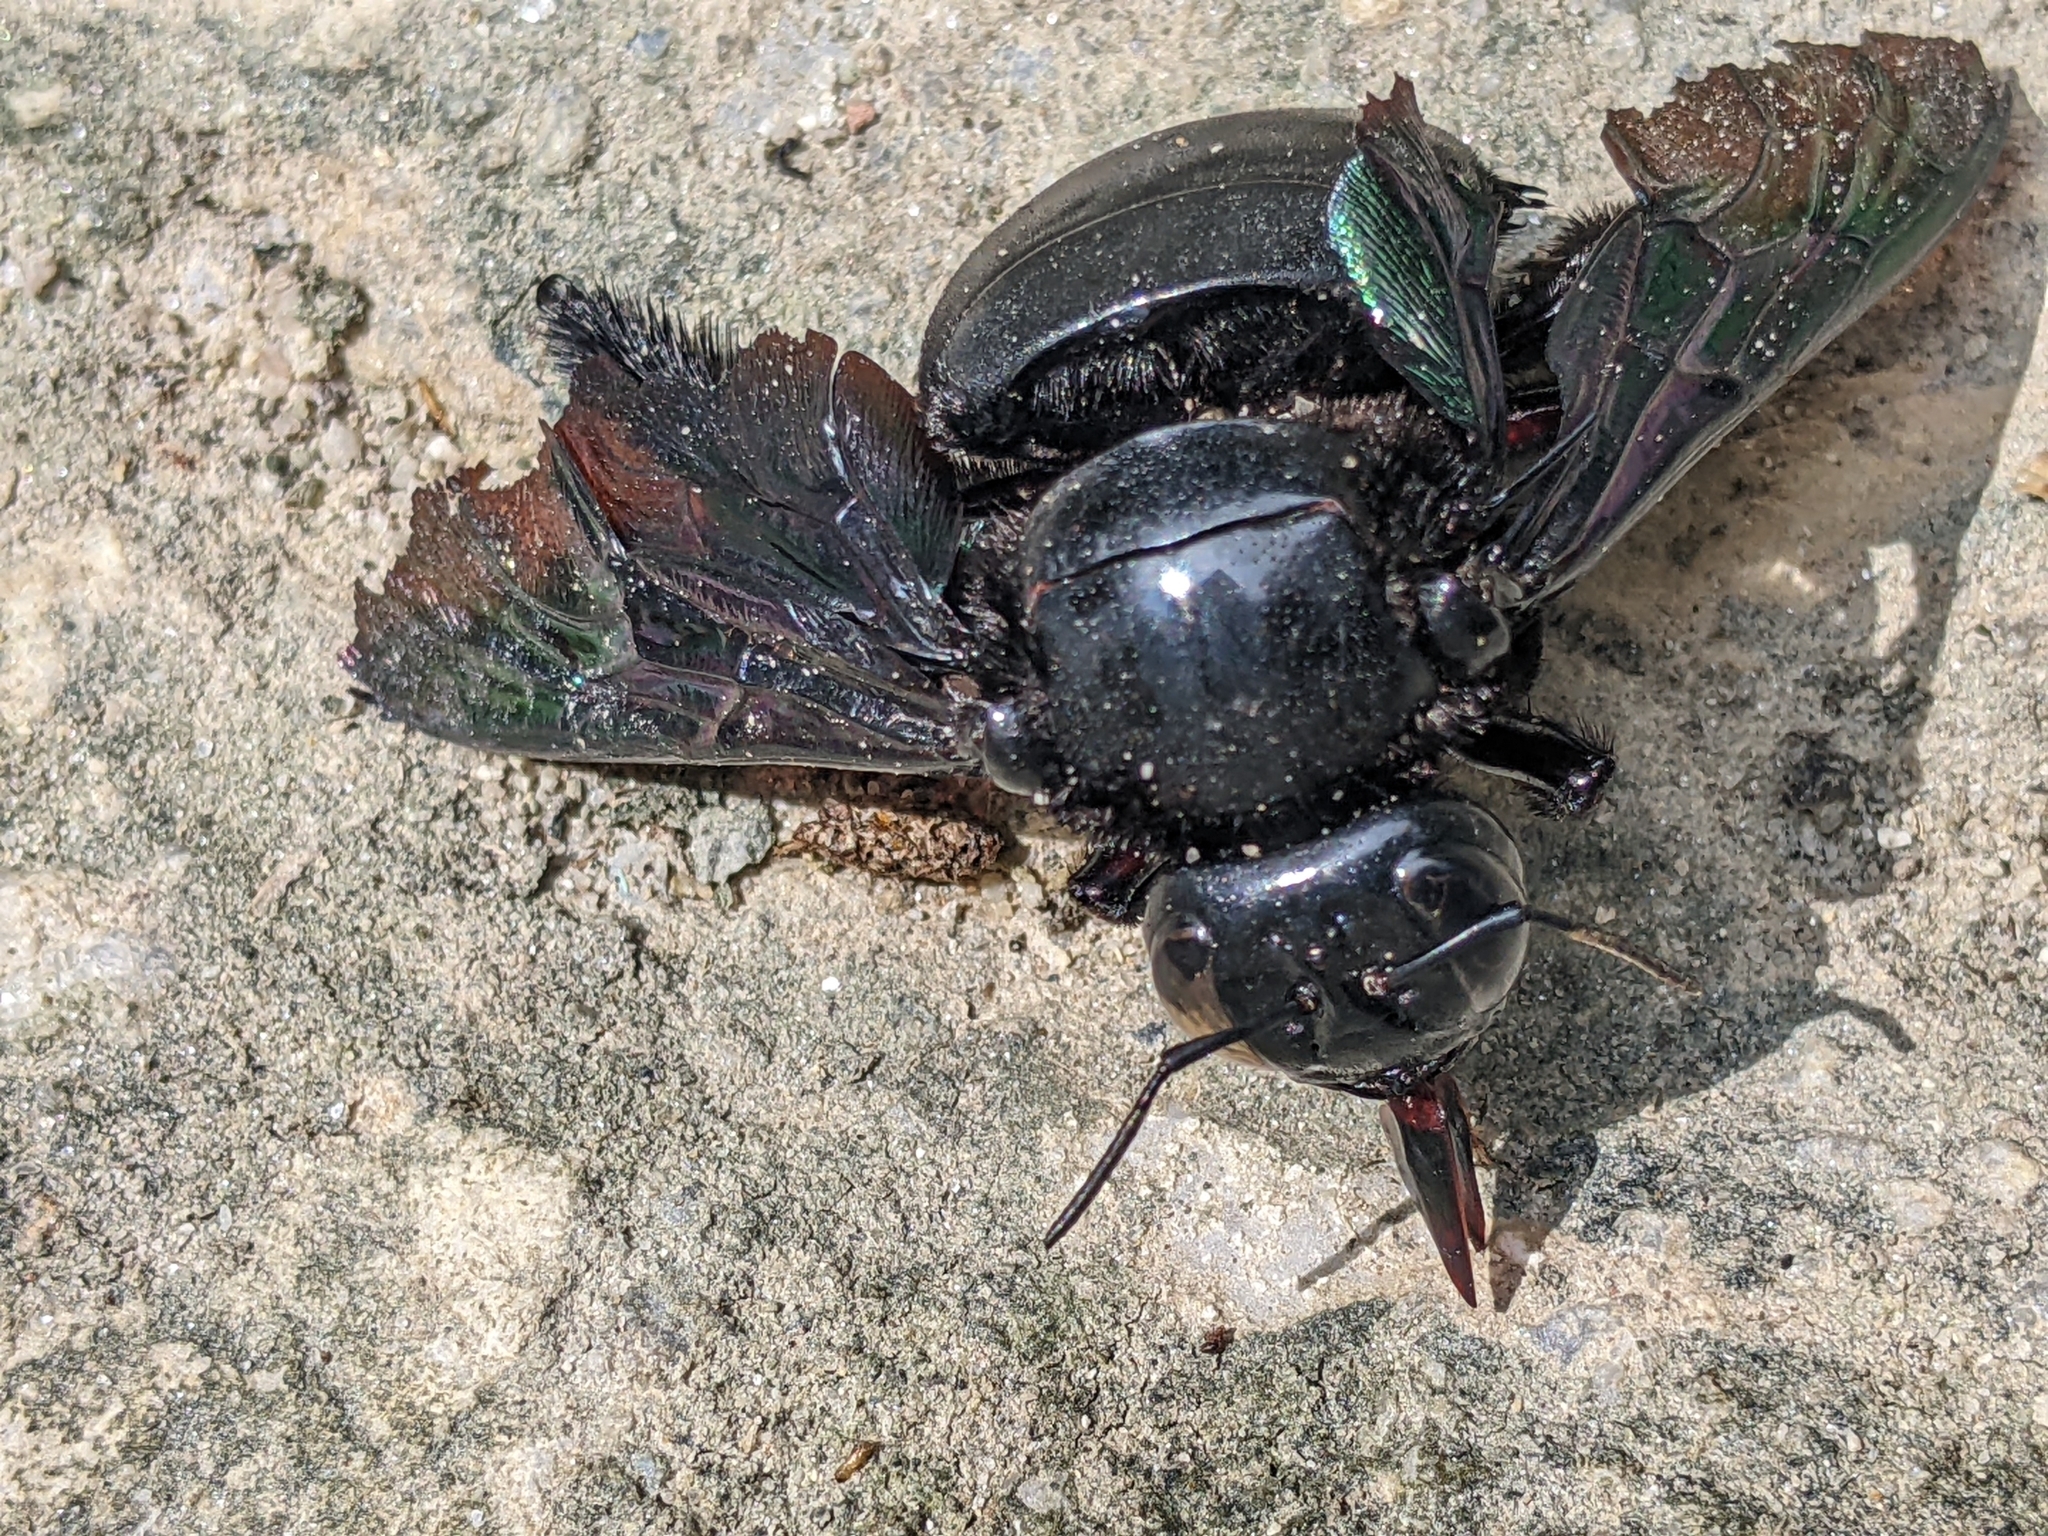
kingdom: Animalia
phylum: Arthropoda
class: Insecta
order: Hymenoptera
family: Apidae
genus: Xylocopa
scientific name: Xylocopa latipes
